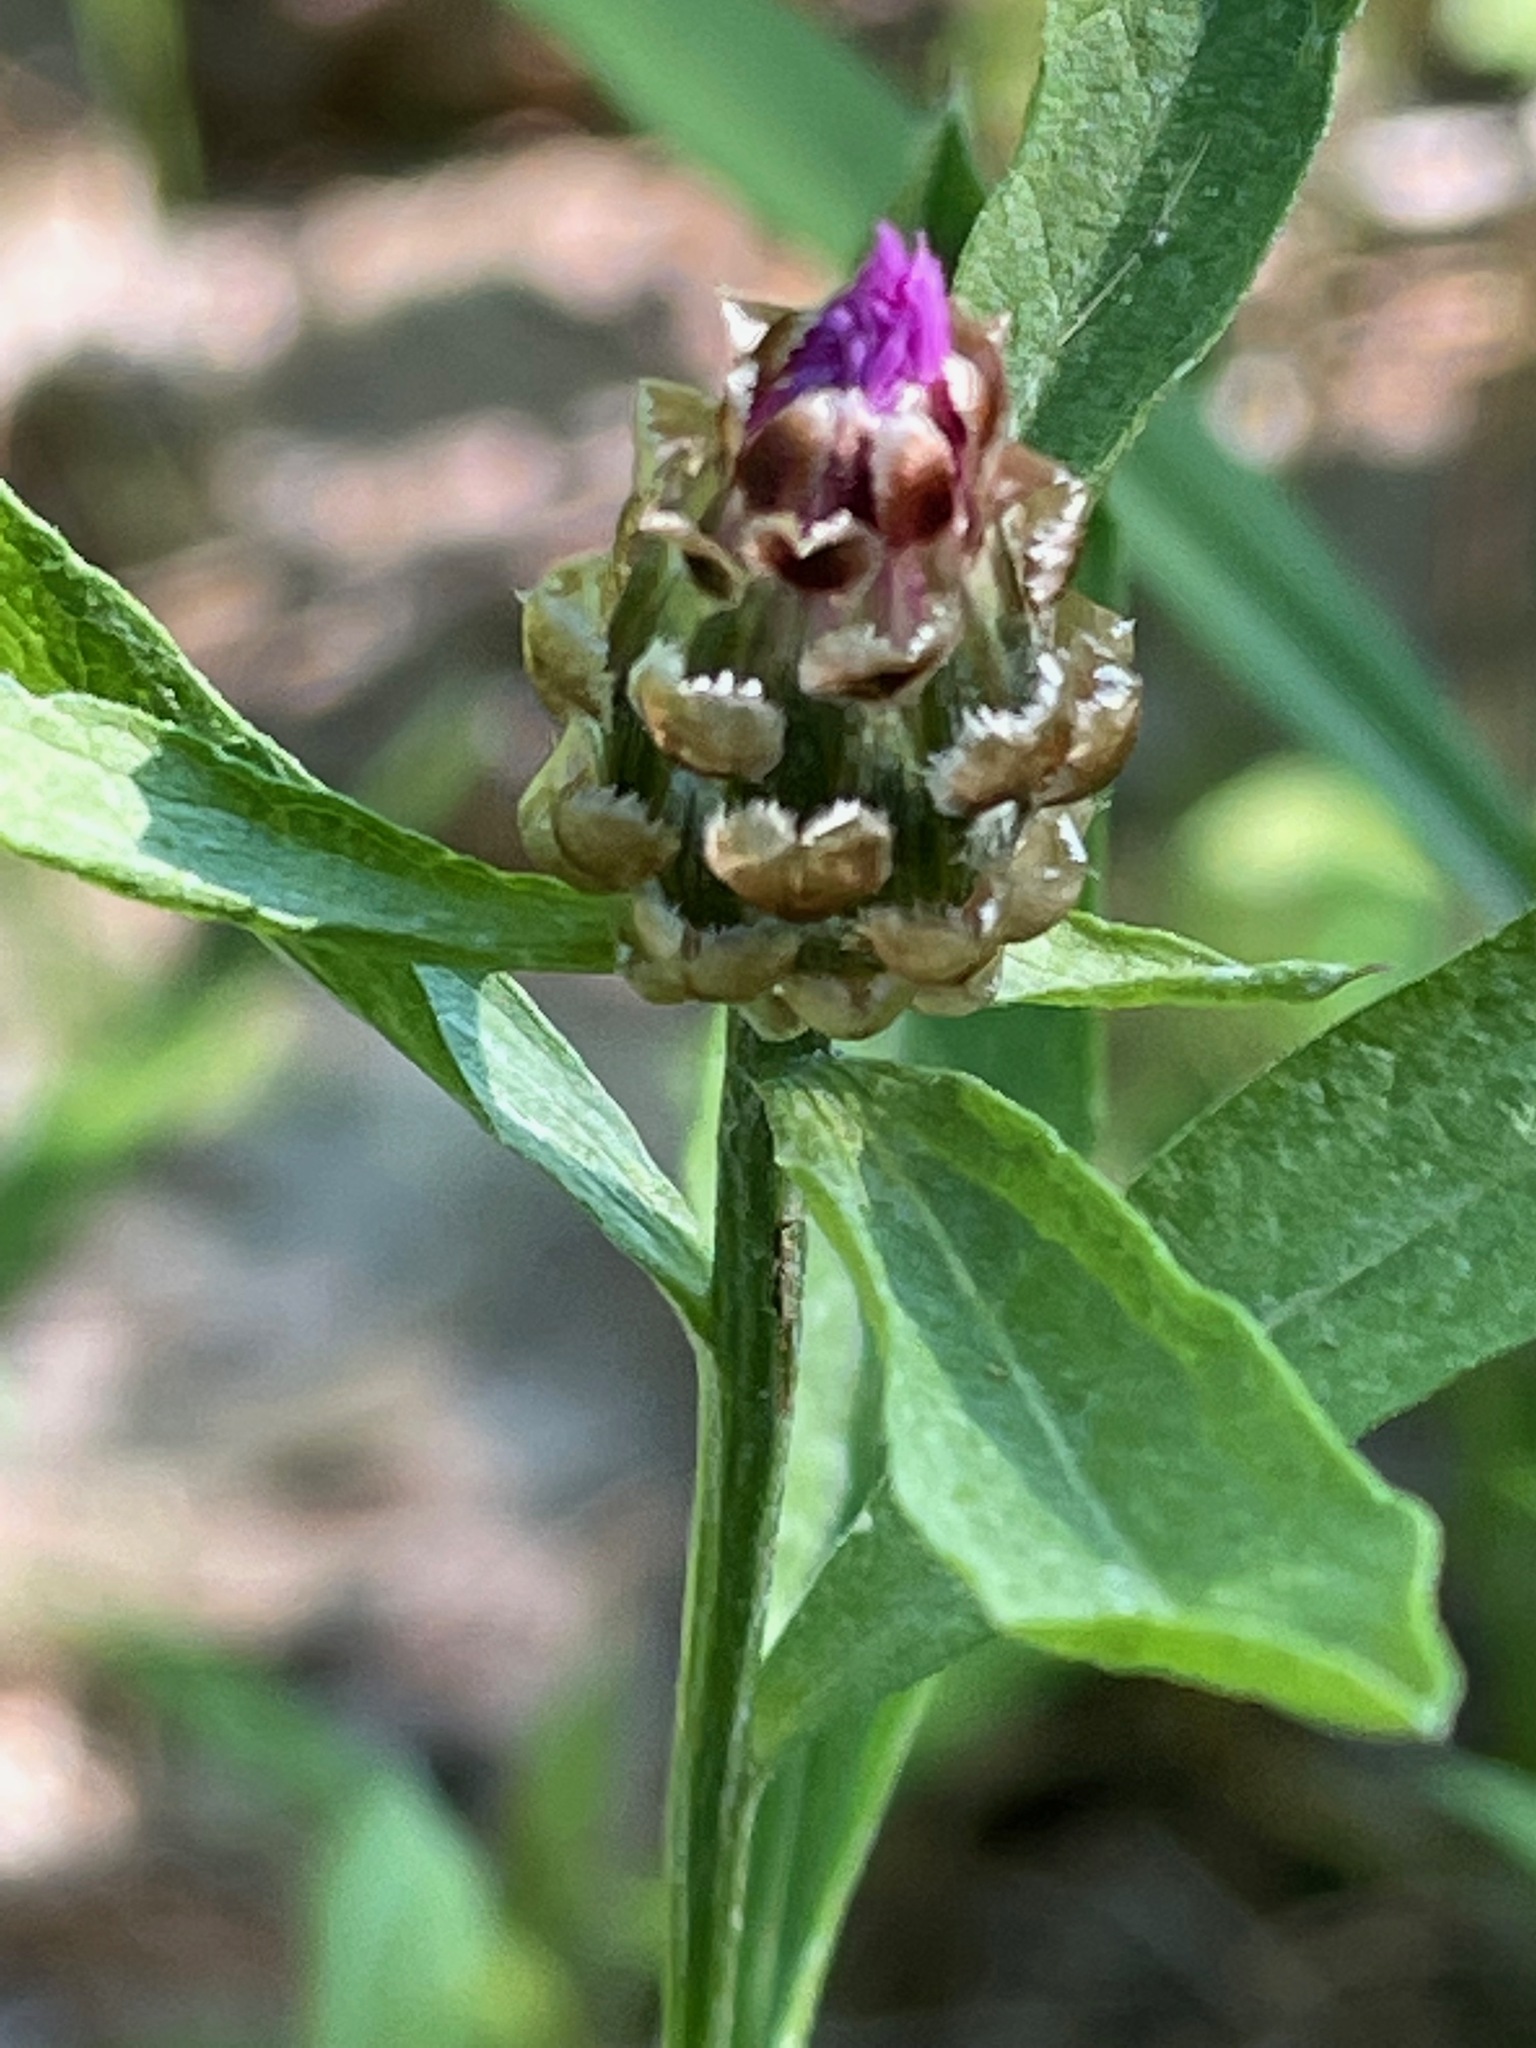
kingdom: Plantae
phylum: Tracheophyta
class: Magnoliopsida
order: Asterales
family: Asteraceae
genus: Centaurea
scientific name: Centaurea jacea
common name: Brown knapweed
